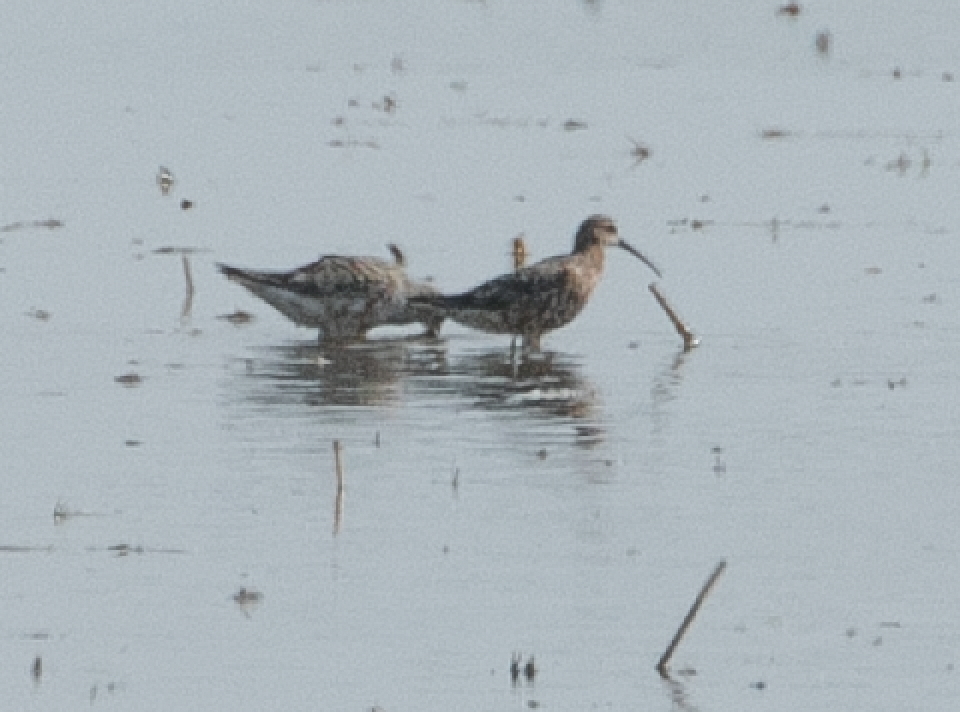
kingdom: Animalia
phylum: Chordata
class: Aves
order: Charadriiformes
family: Scolopacidae
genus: Calidris
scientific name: Calidris ferruginea
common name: Curlew sandpiper
